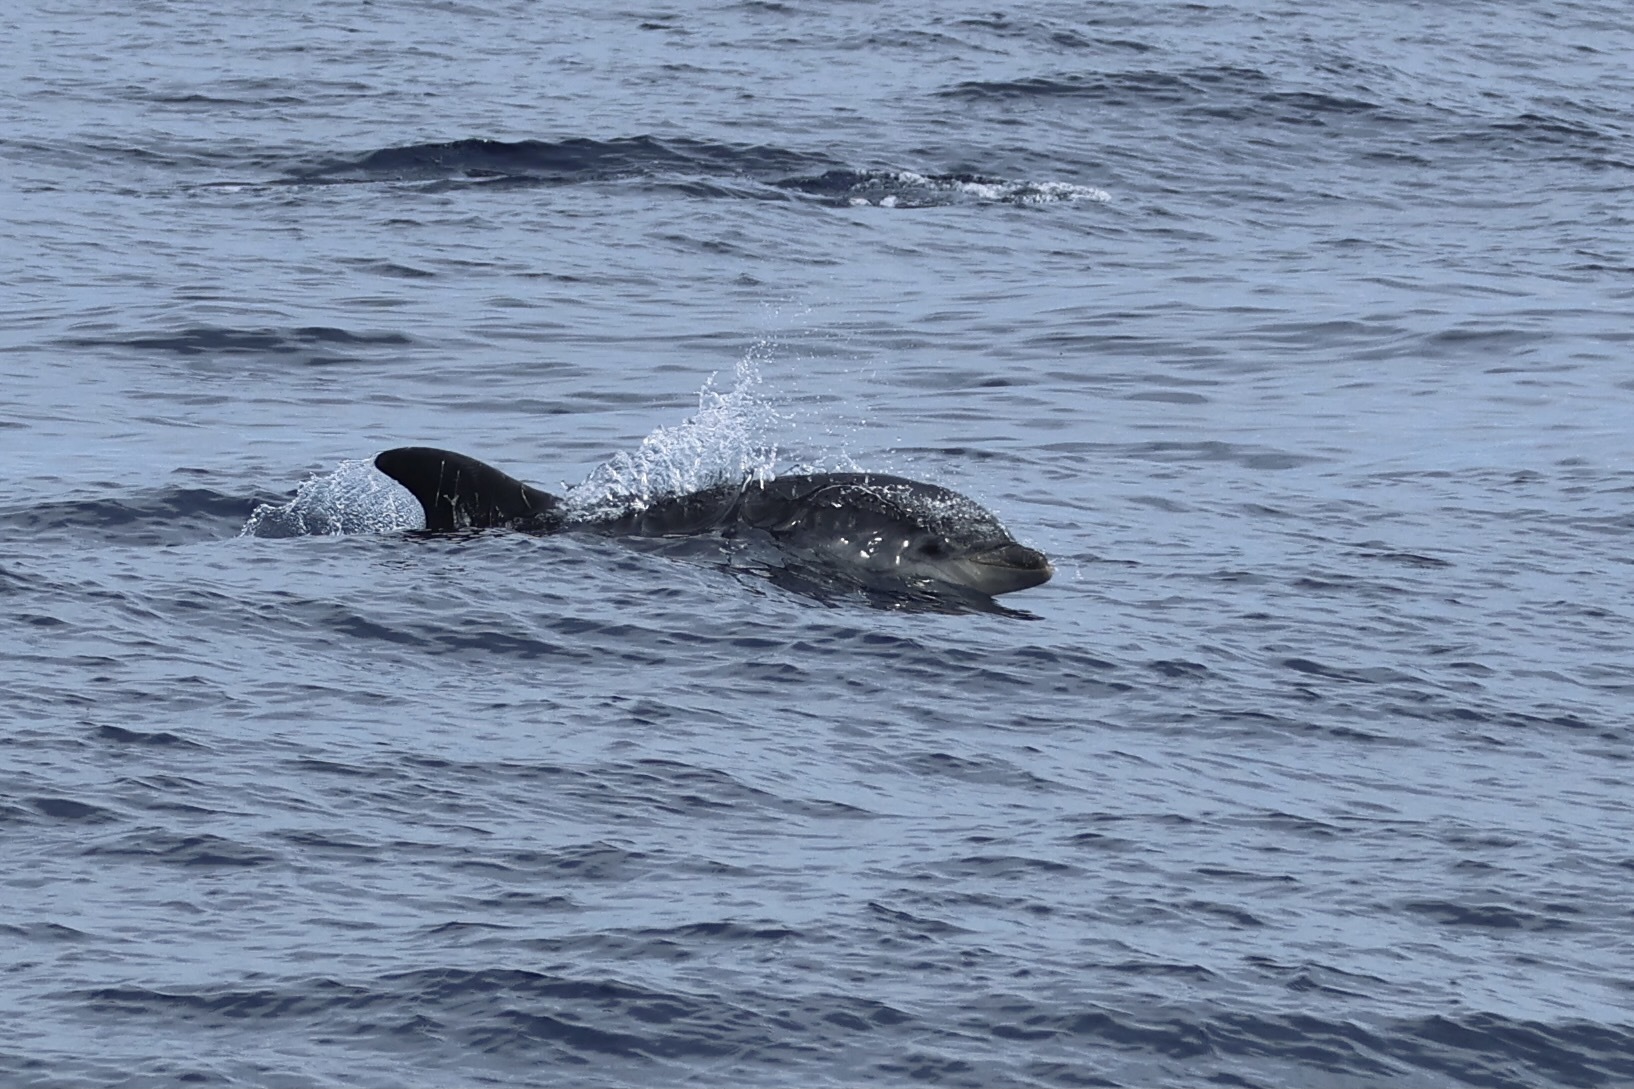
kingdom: Animalia
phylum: Chordata
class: Mammalia
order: Cetacea
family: Delphinidae
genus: Tursiops
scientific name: Tursiops truncatus
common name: Bottlenose dolphin
